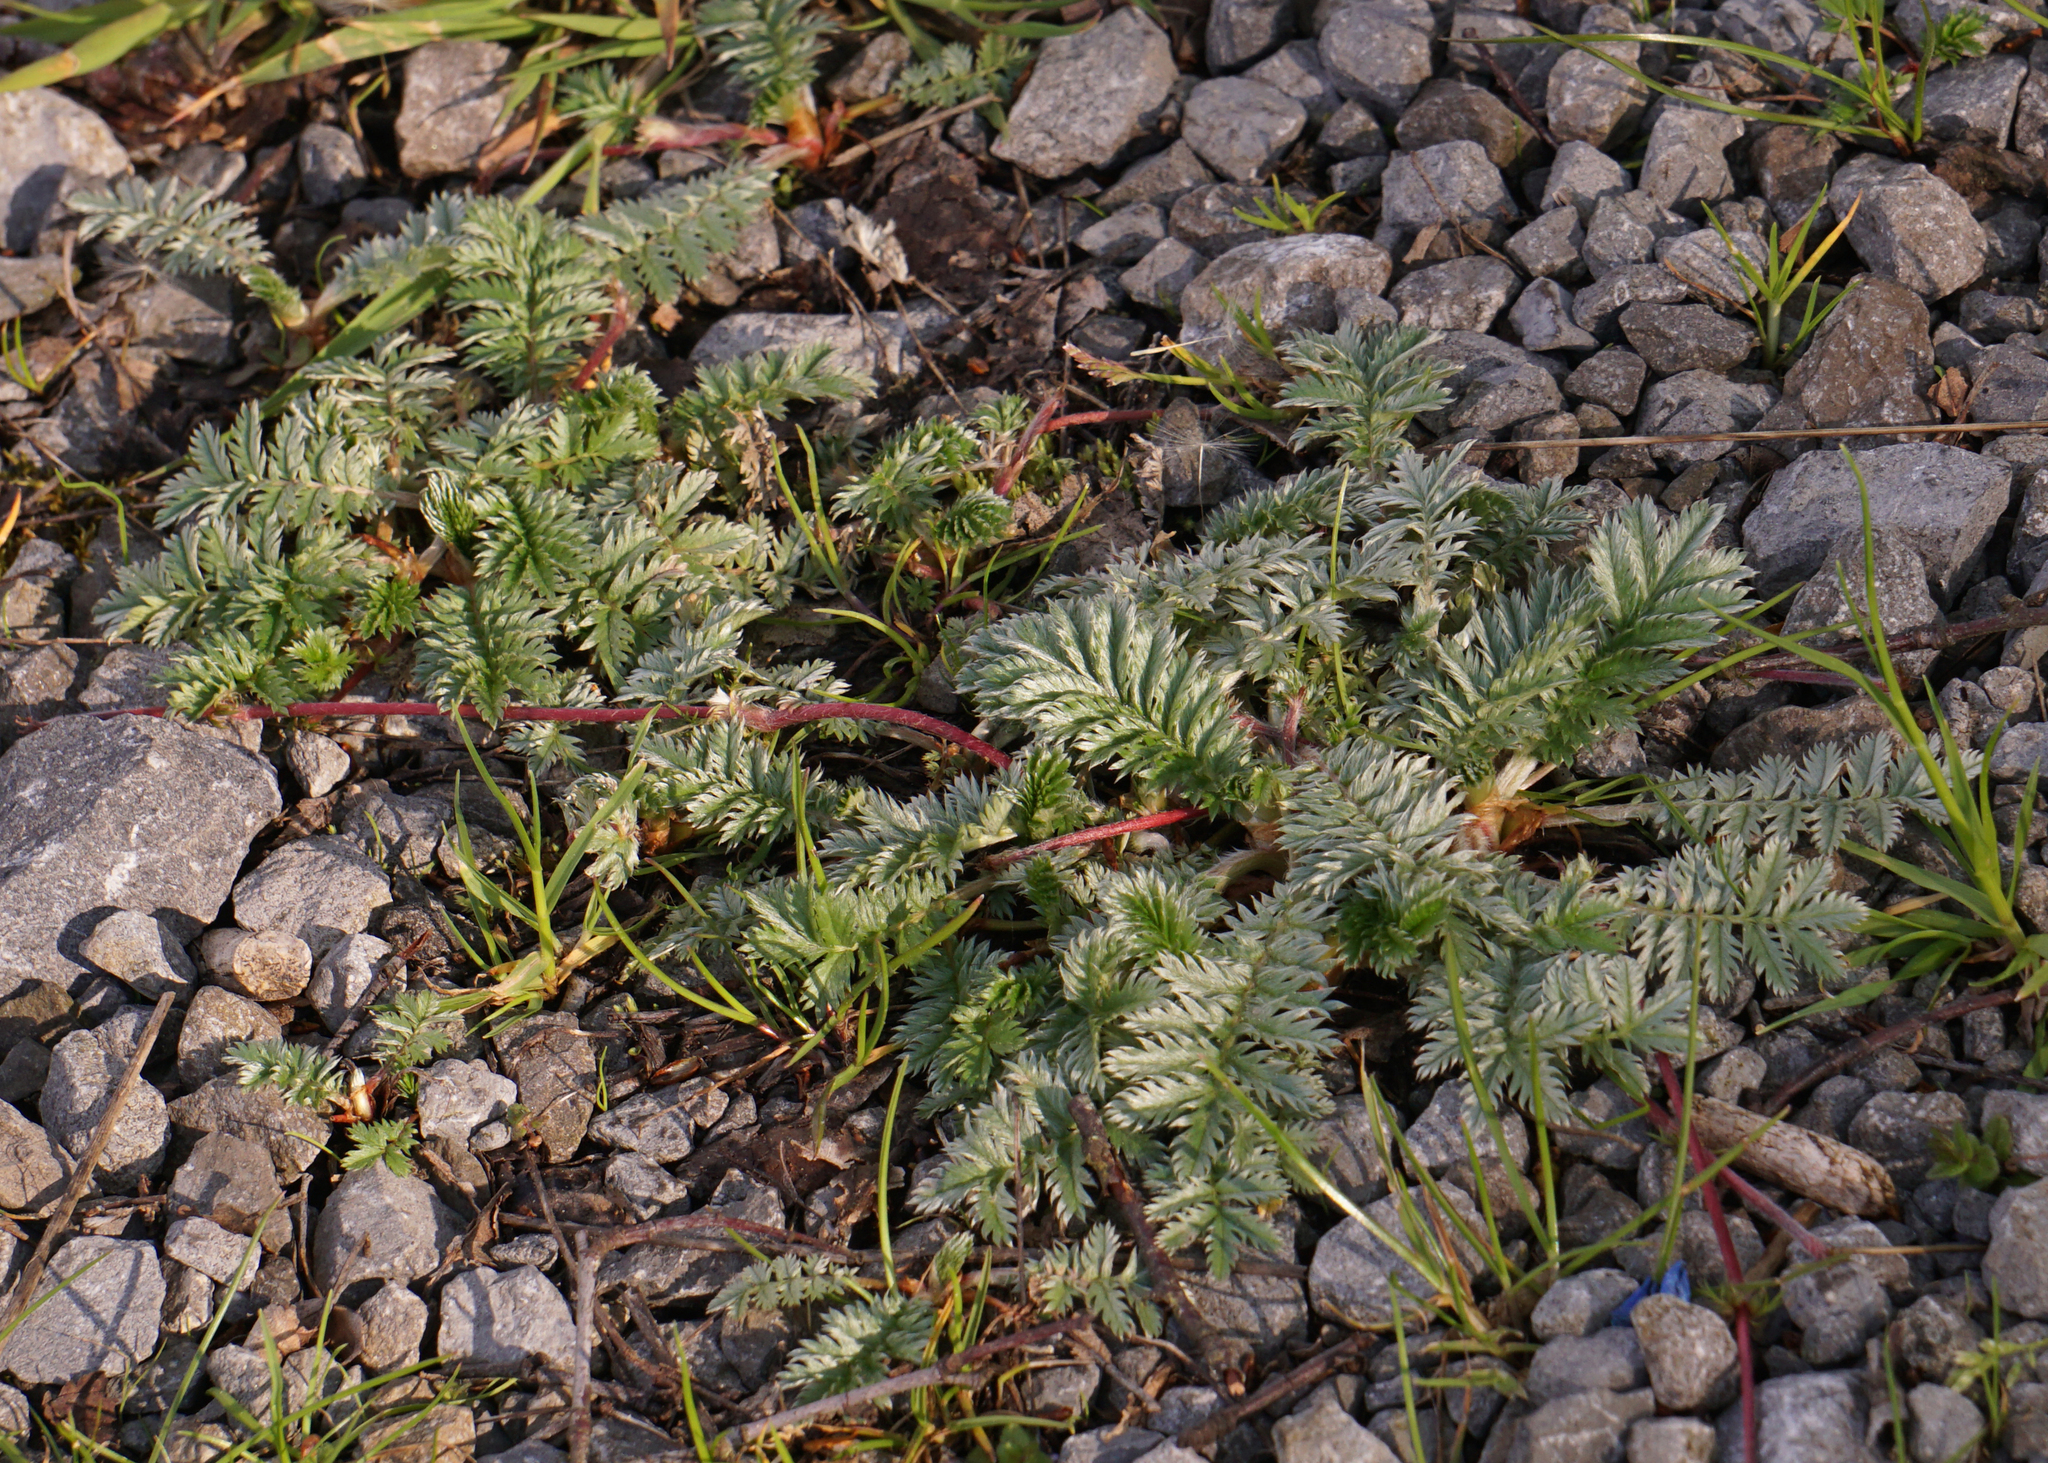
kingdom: Plantae
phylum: Tracheophyta
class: Magnoliopsida
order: Rosales
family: Rosaceae
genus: Argentina
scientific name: Argentina anserina
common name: Common silverweed
